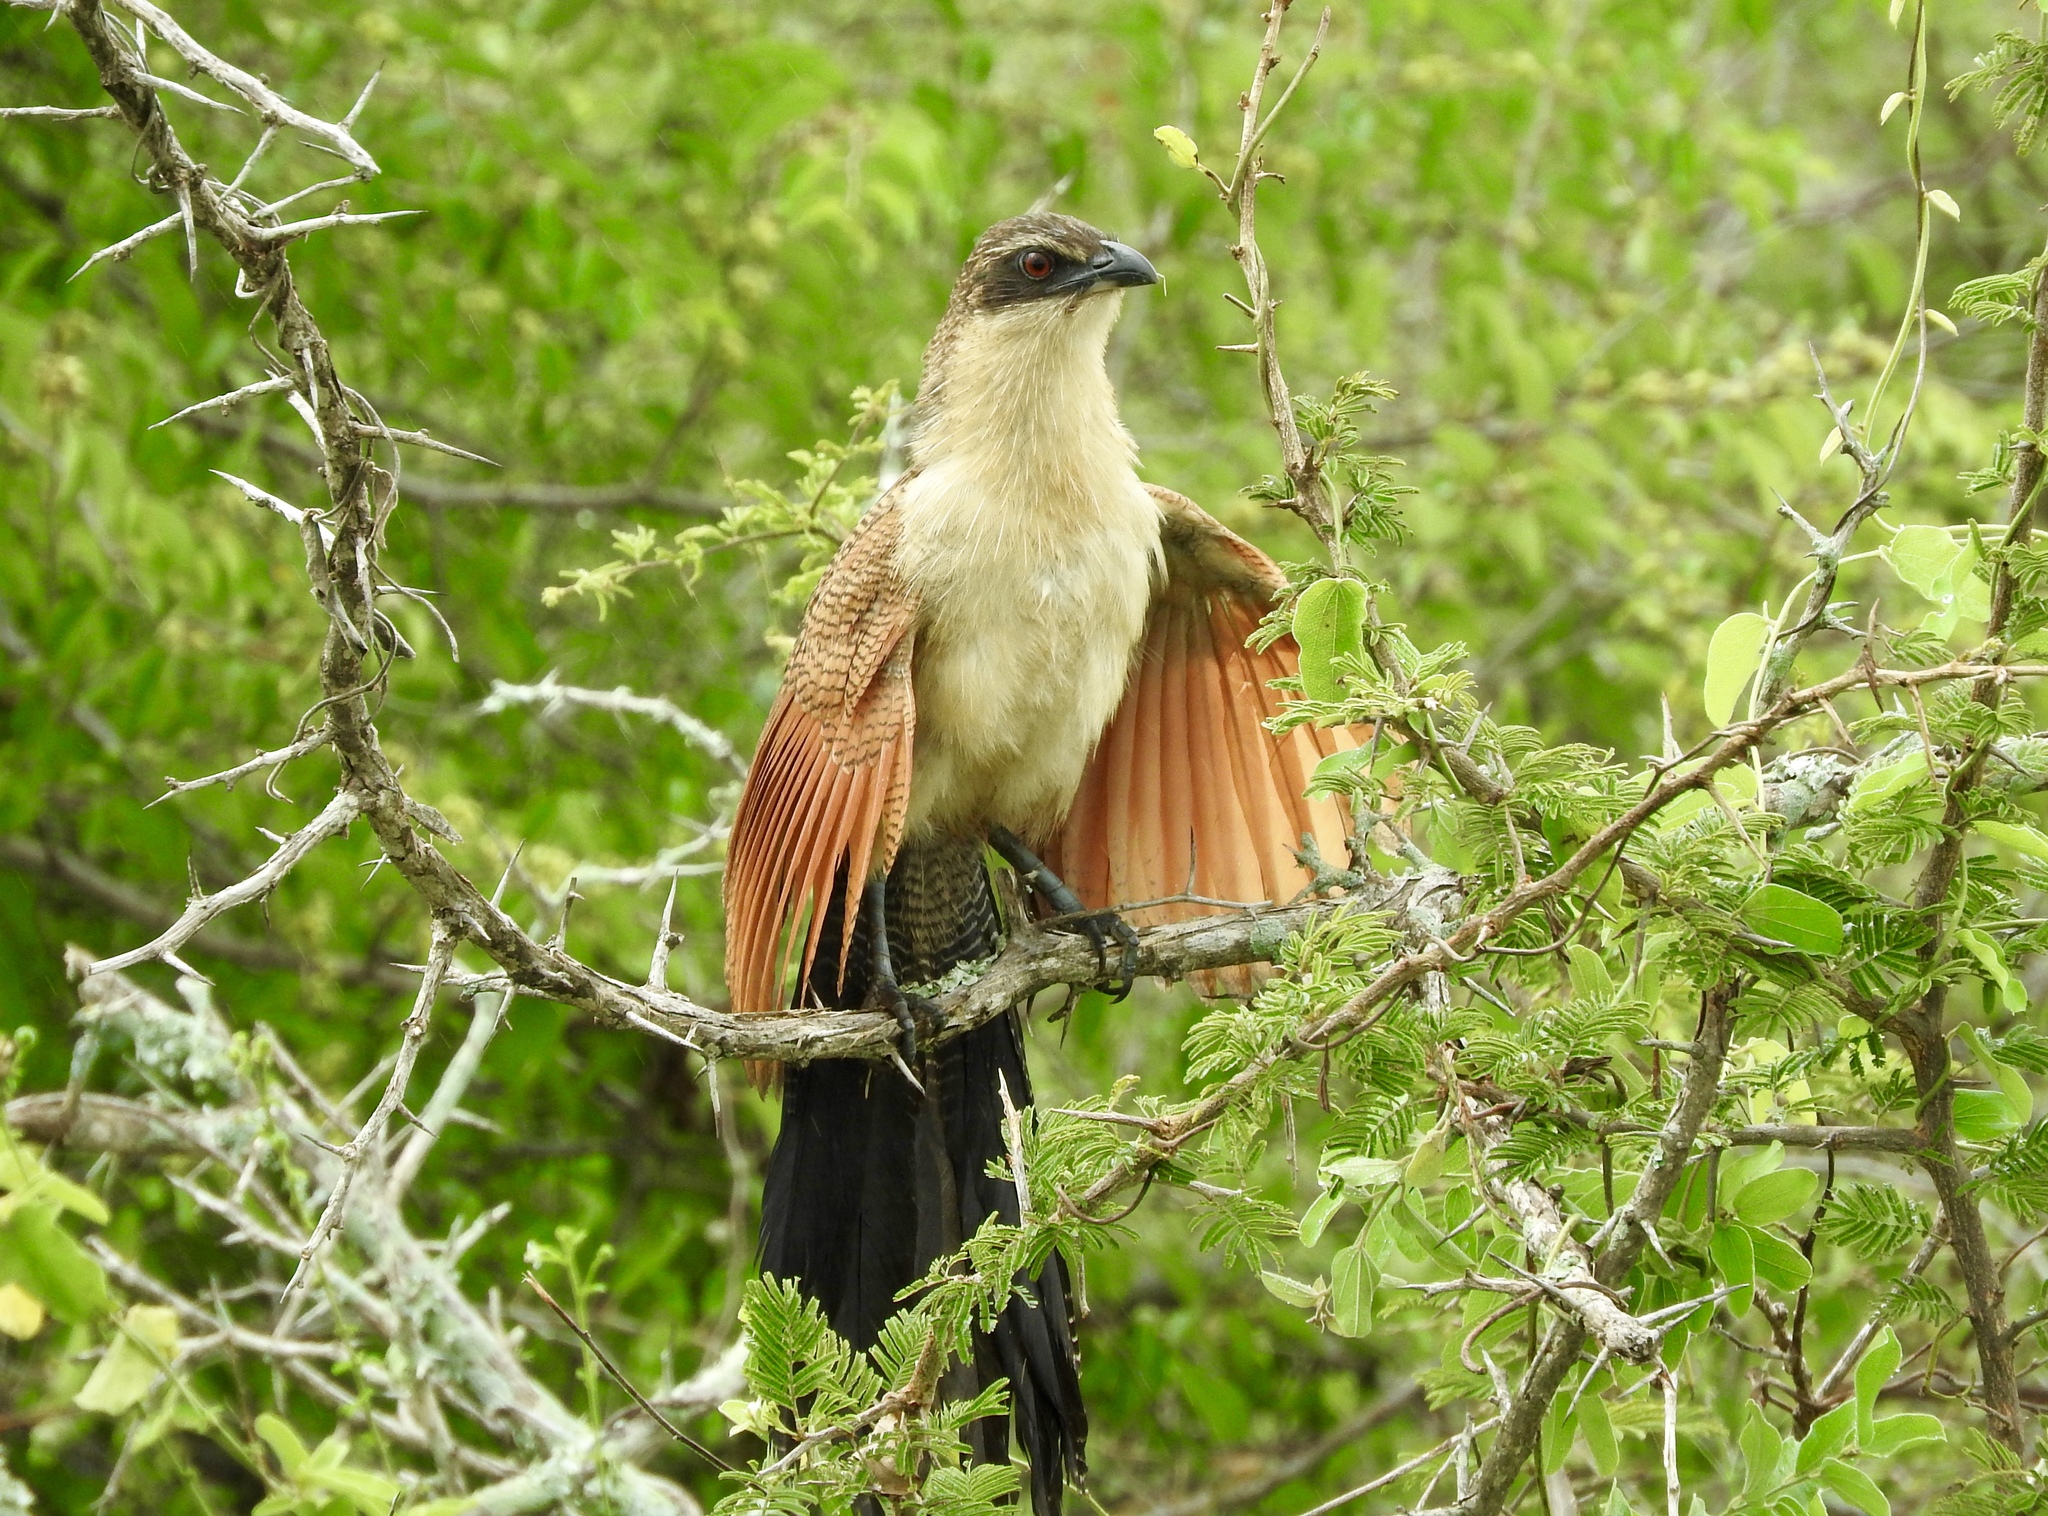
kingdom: Animalia
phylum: Chordata
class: Aves
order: Cuculiformes
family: Cuculidae
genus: Centropus
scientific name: Centropus superciliosus
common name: White-browed coucal
